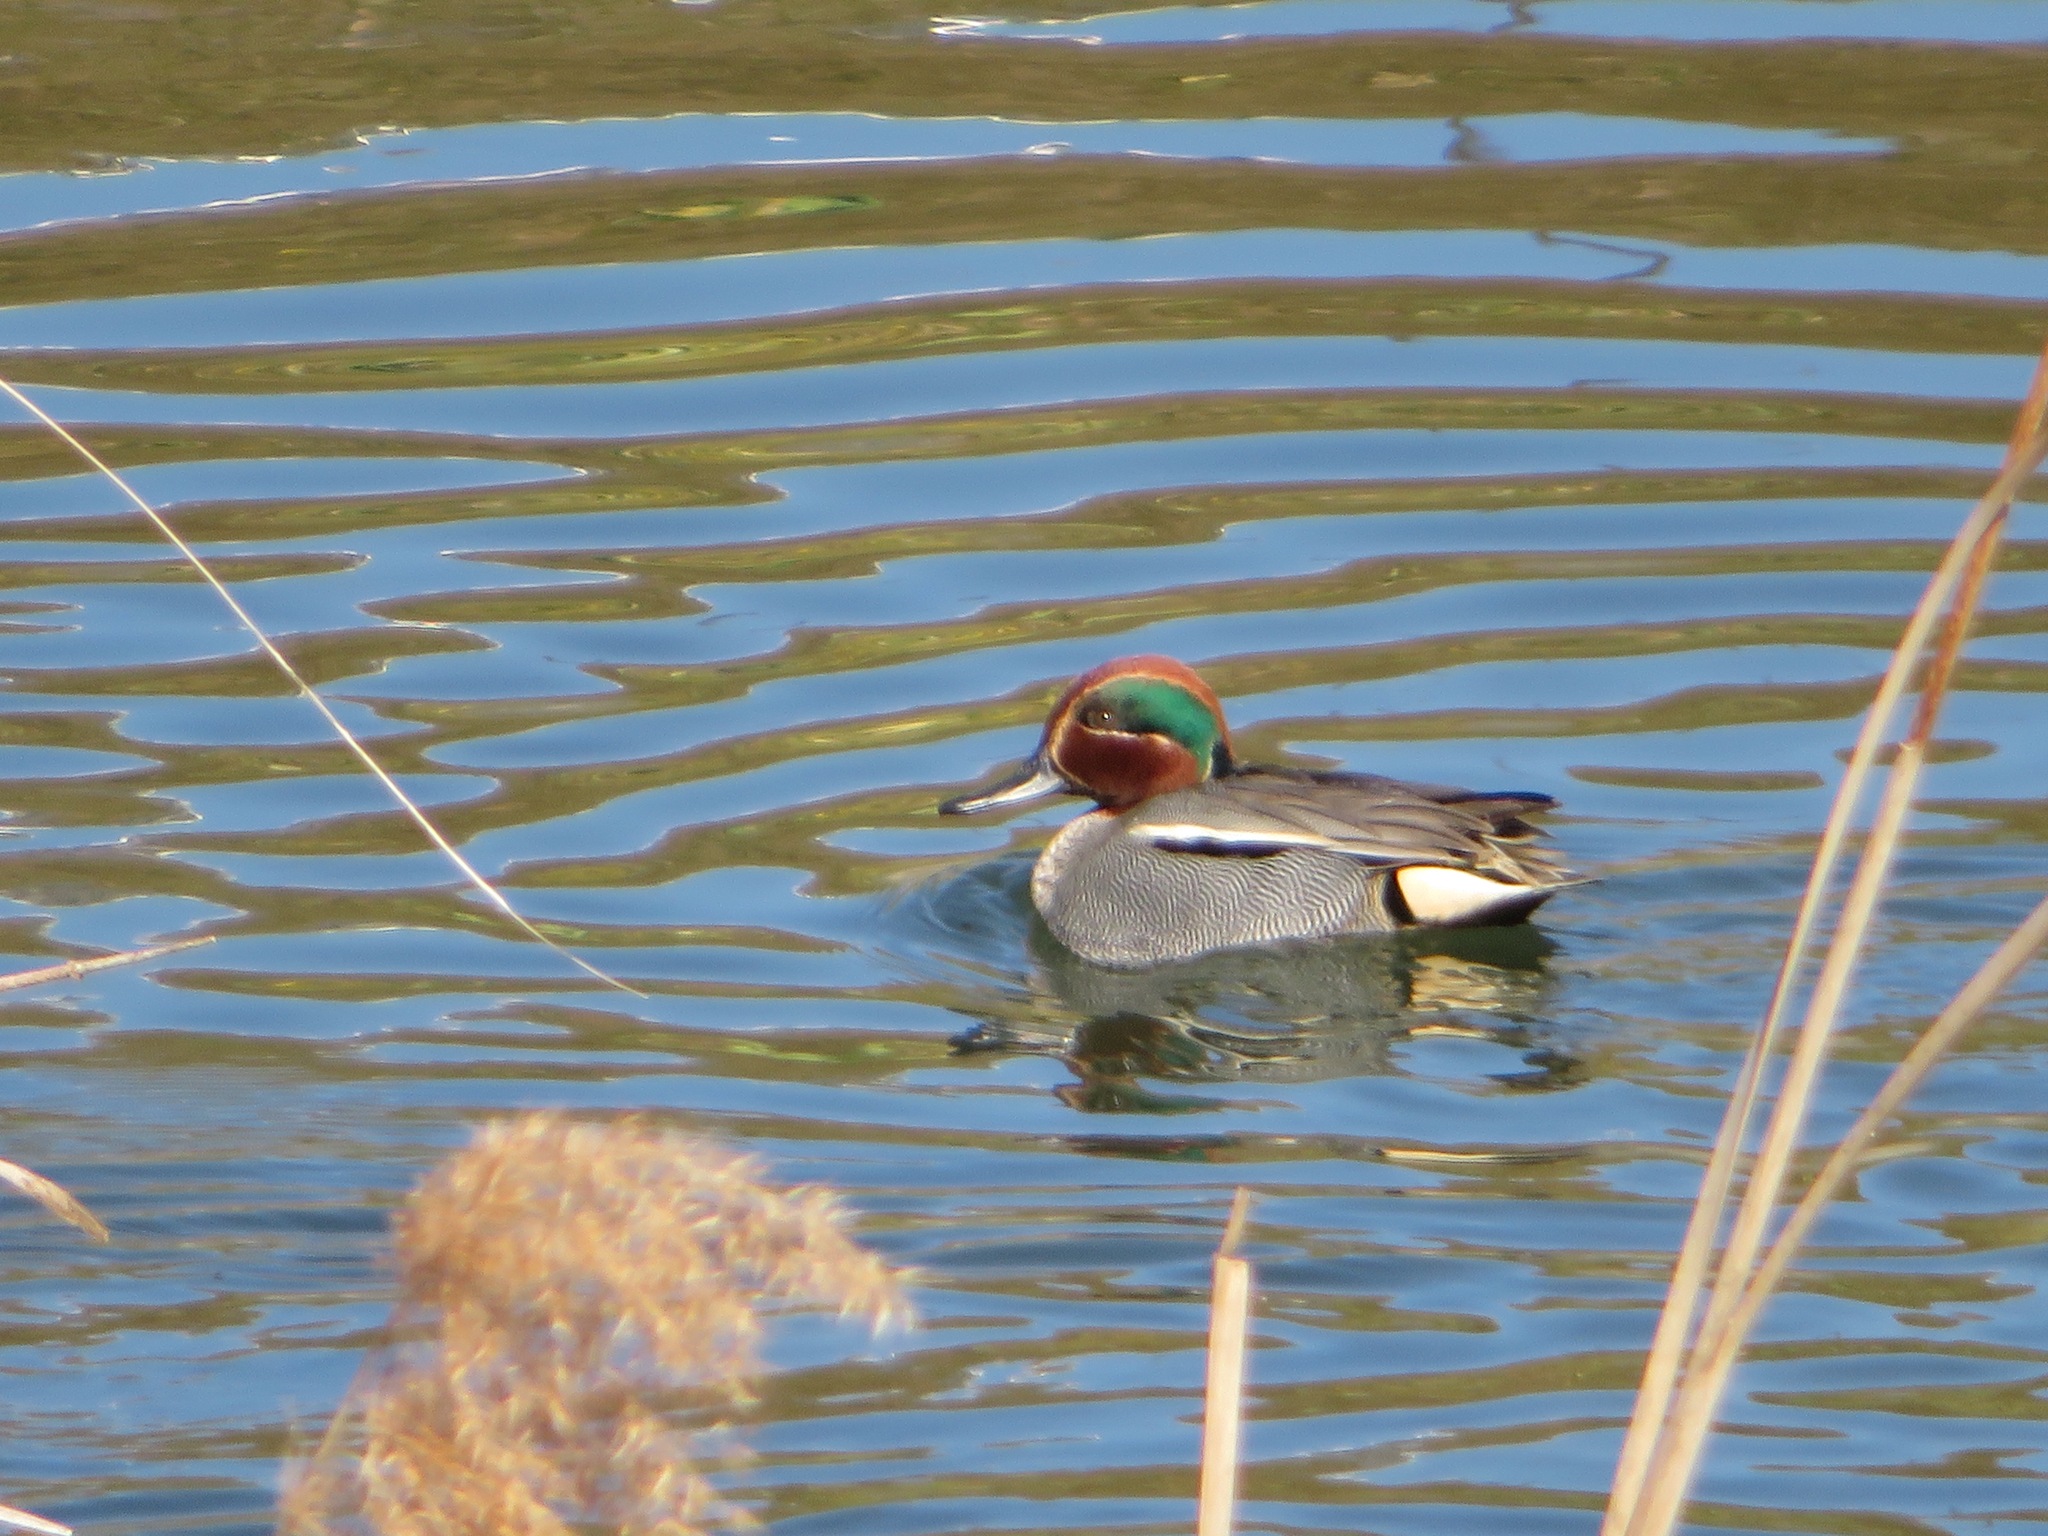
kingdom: Animalia
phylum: Chordata
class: Aves
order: Anseriformes
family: Anatidae
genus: Anas
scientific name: Anas crecca
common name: Eurasian teal
